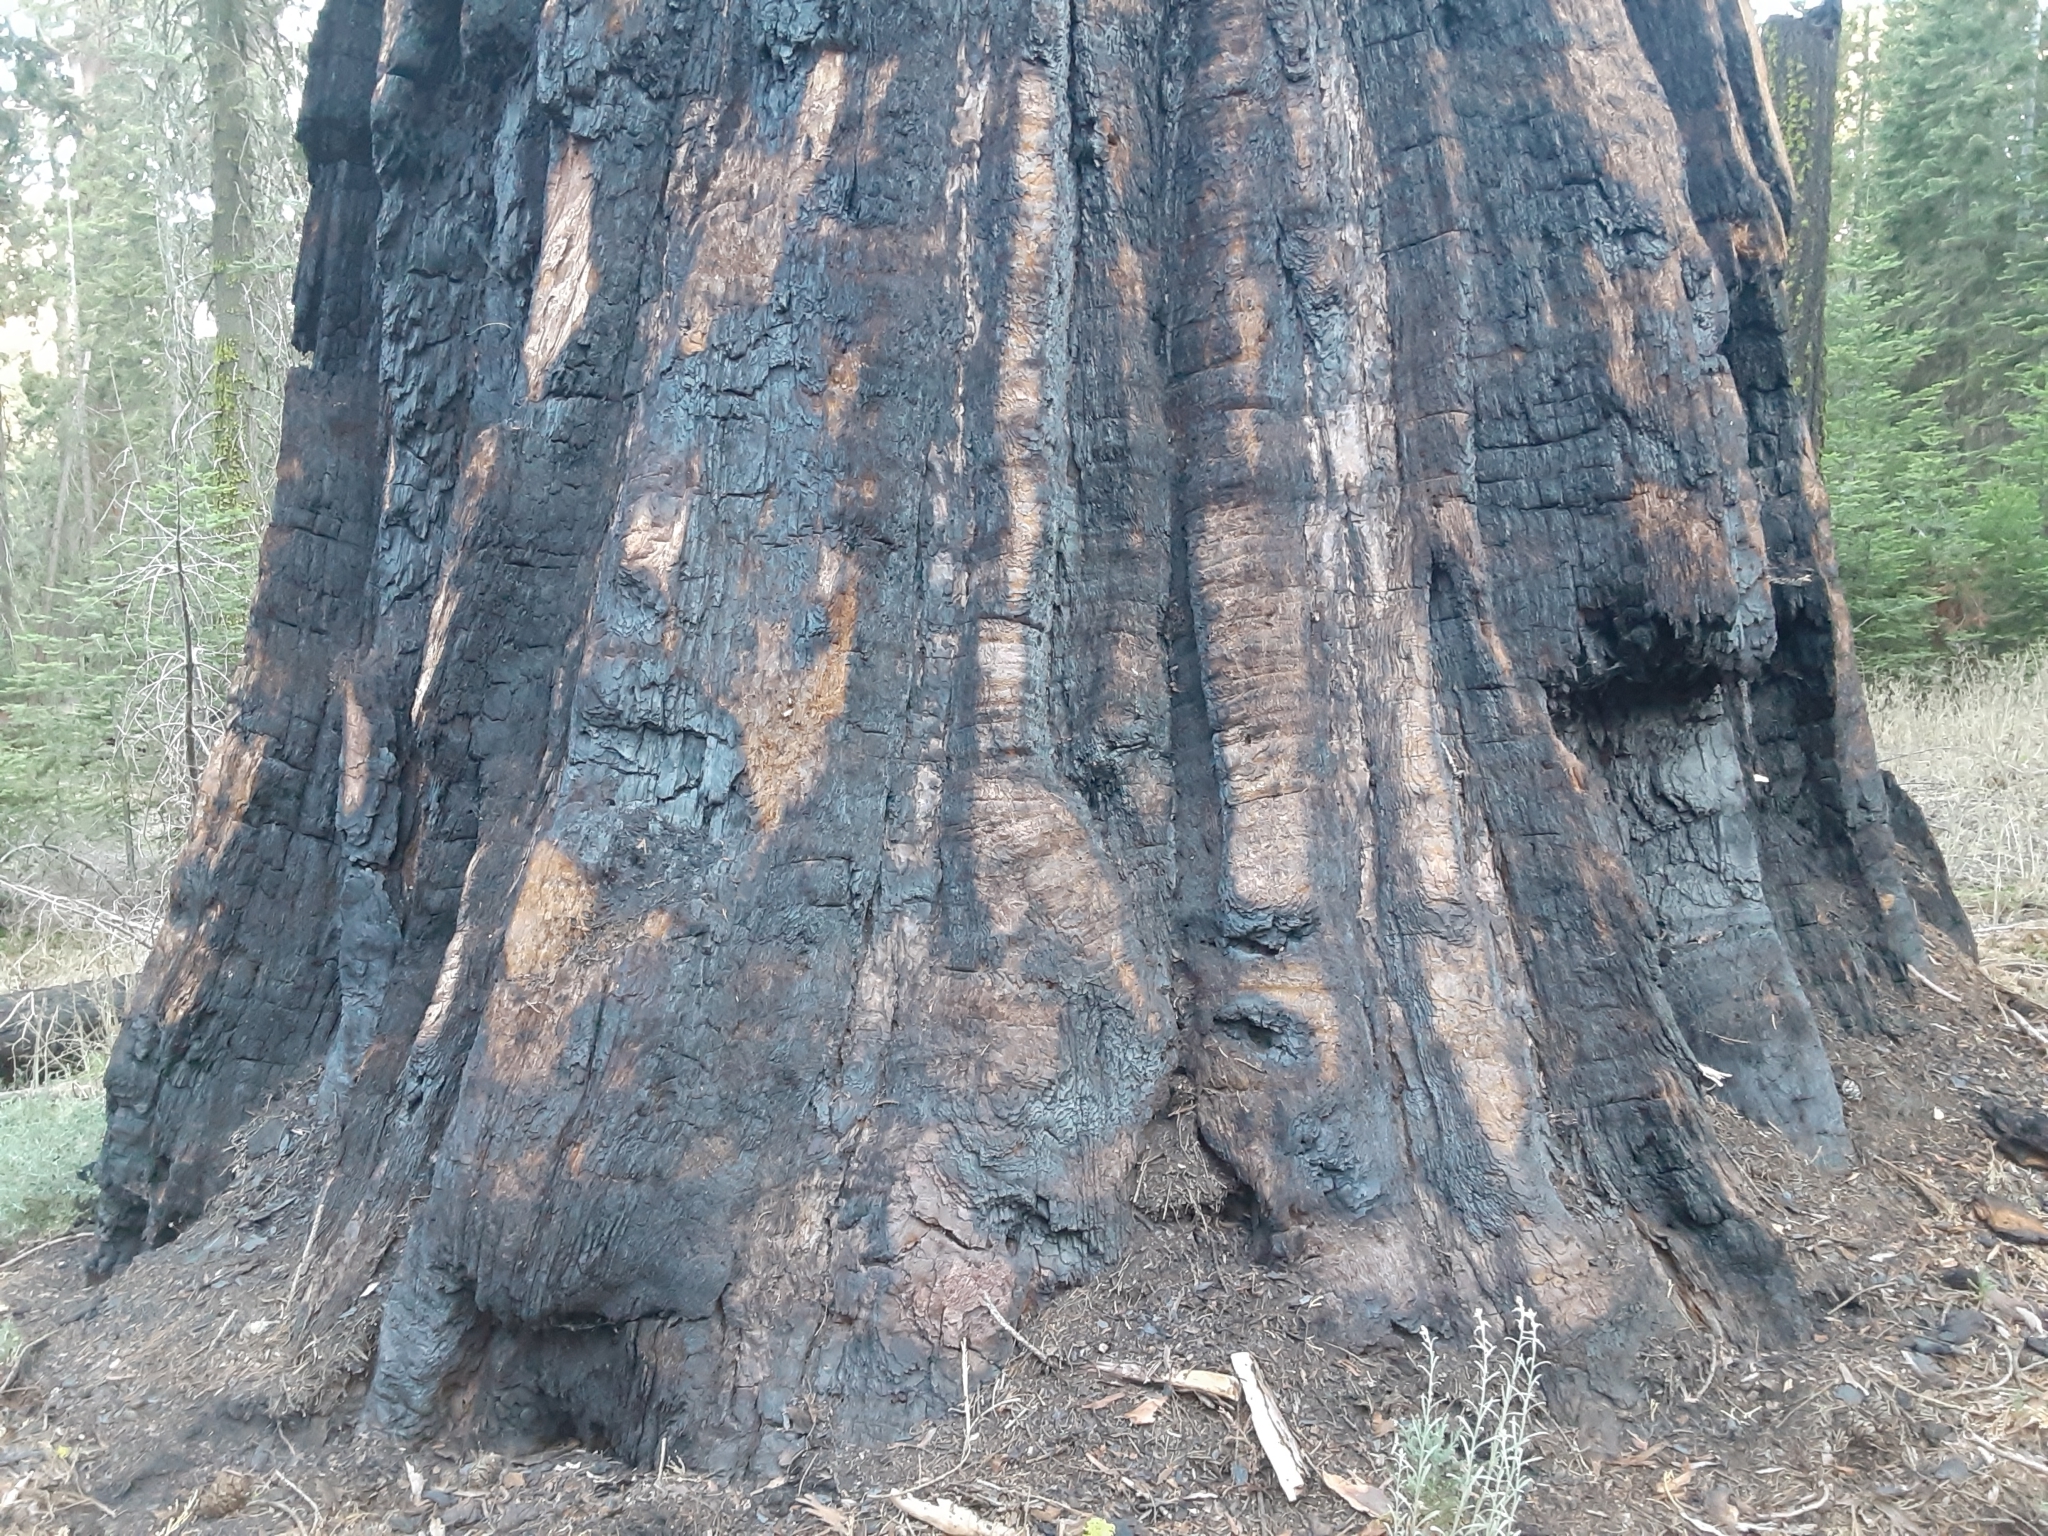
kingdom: Plantae
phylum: Tracheophyta
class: Pinopsida
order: Pinales
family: Cupressaceae
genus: Sequoiadendron
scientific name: Sequoiadendron giganteum
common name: Wellingtonia
